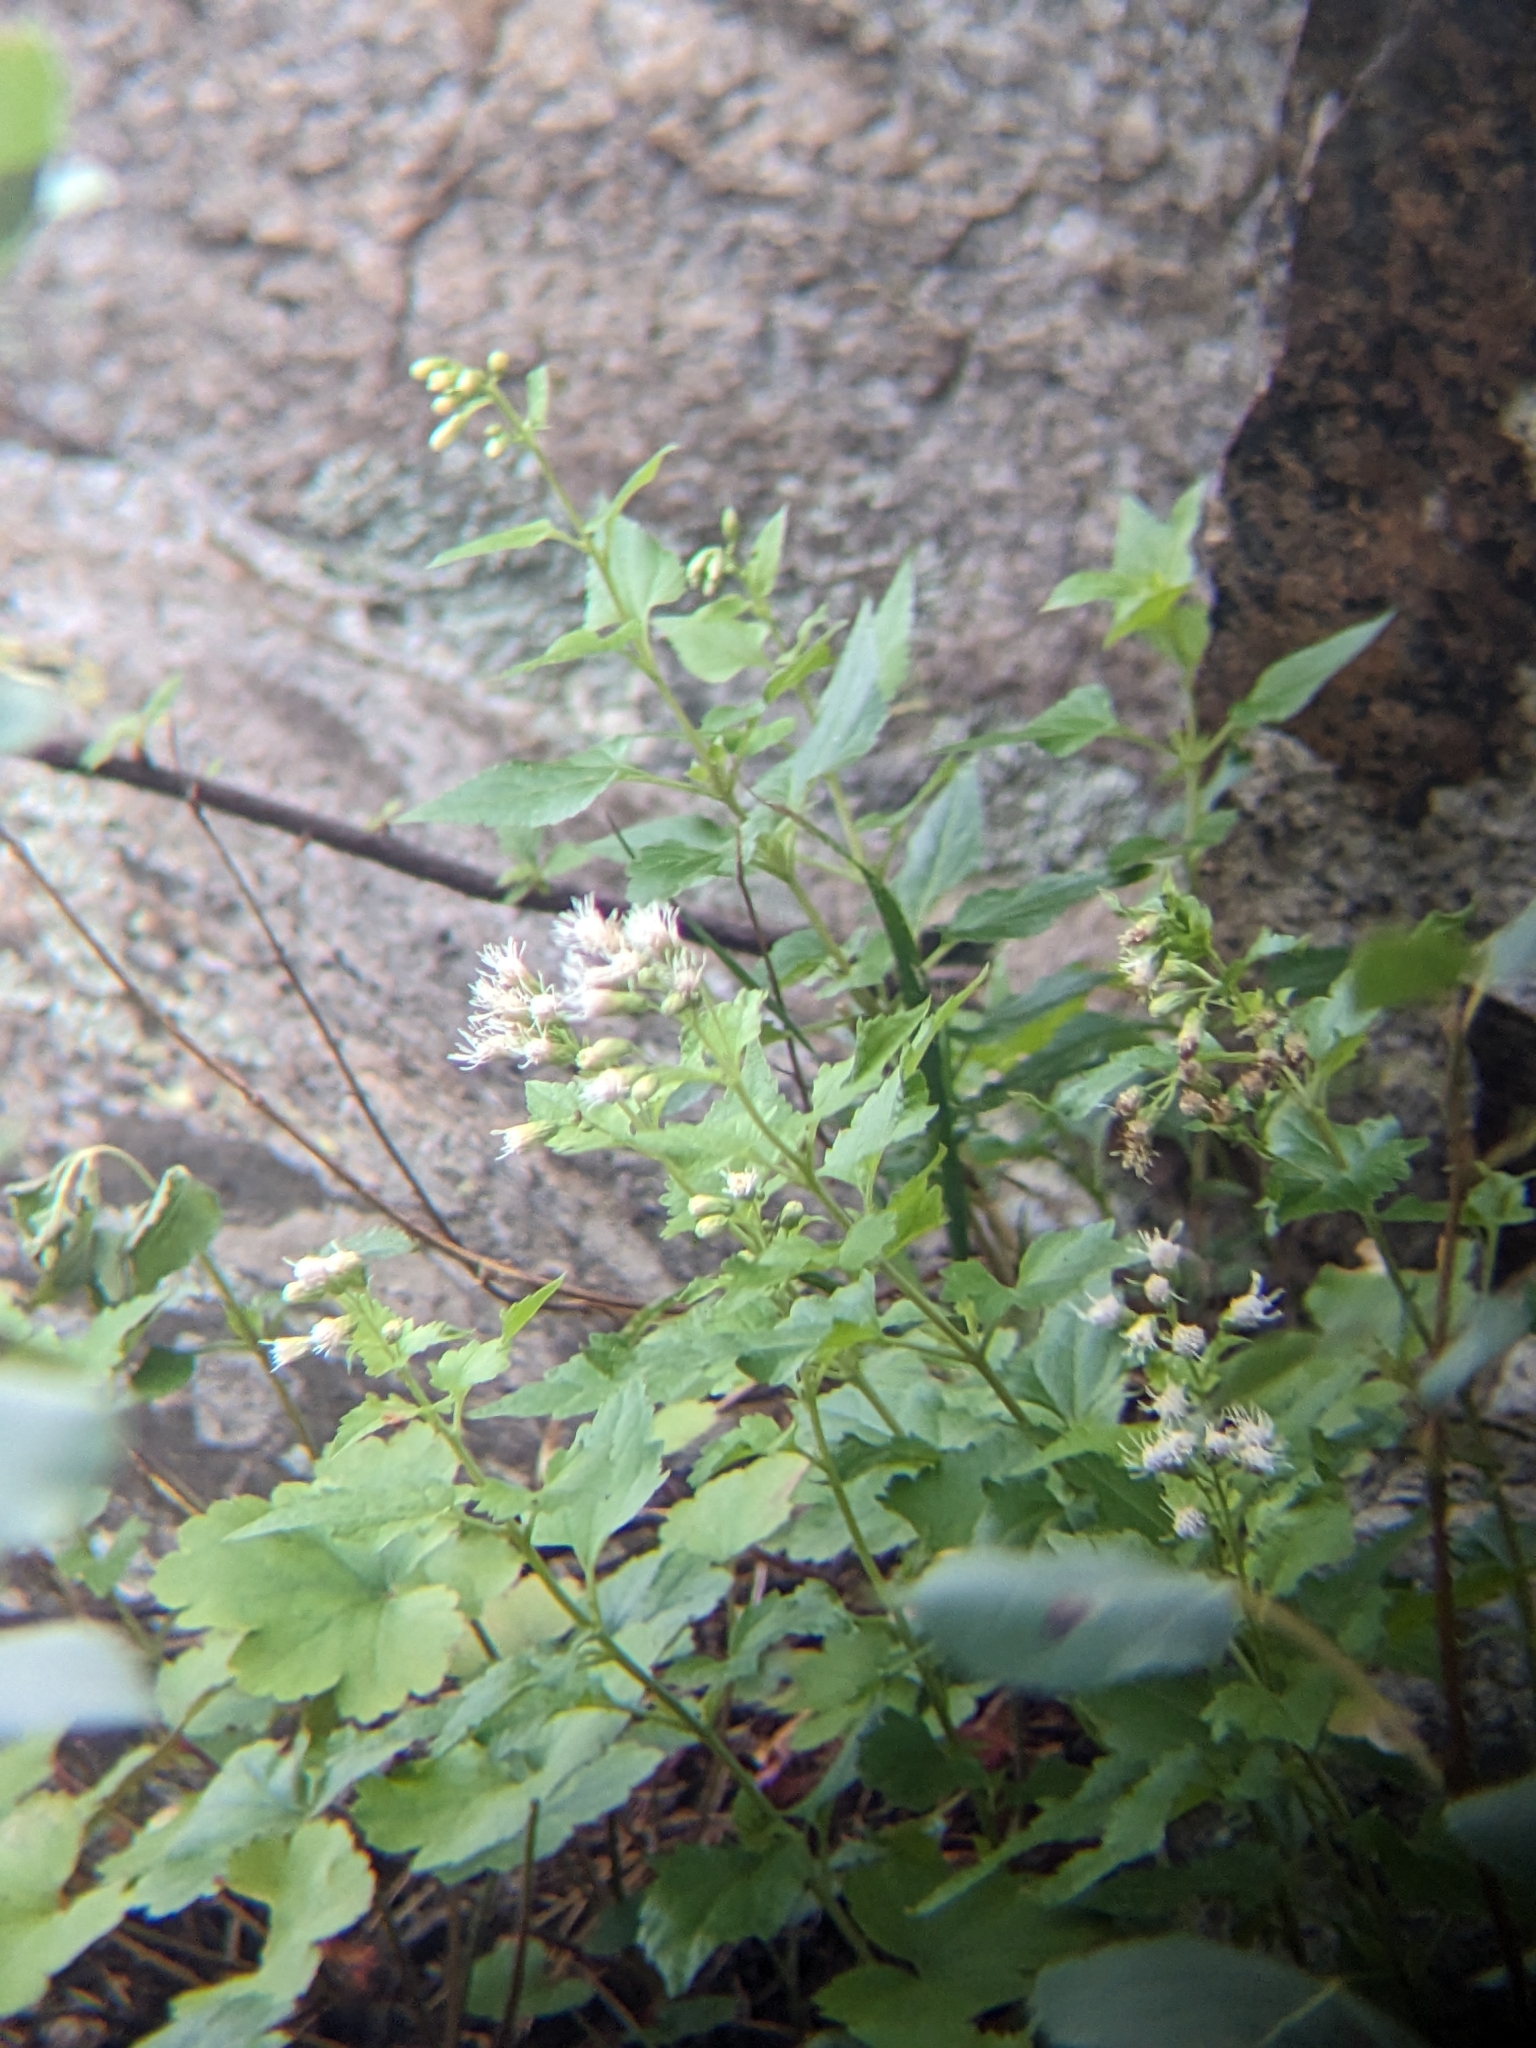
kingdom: Plantae
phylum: Tracheophyta
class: Magnoliopsida
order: Asterales
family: Asteraceae
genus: Brickelliastrum
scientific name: Brickelliastrum fendleri
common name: Fendler's-brickellbush
